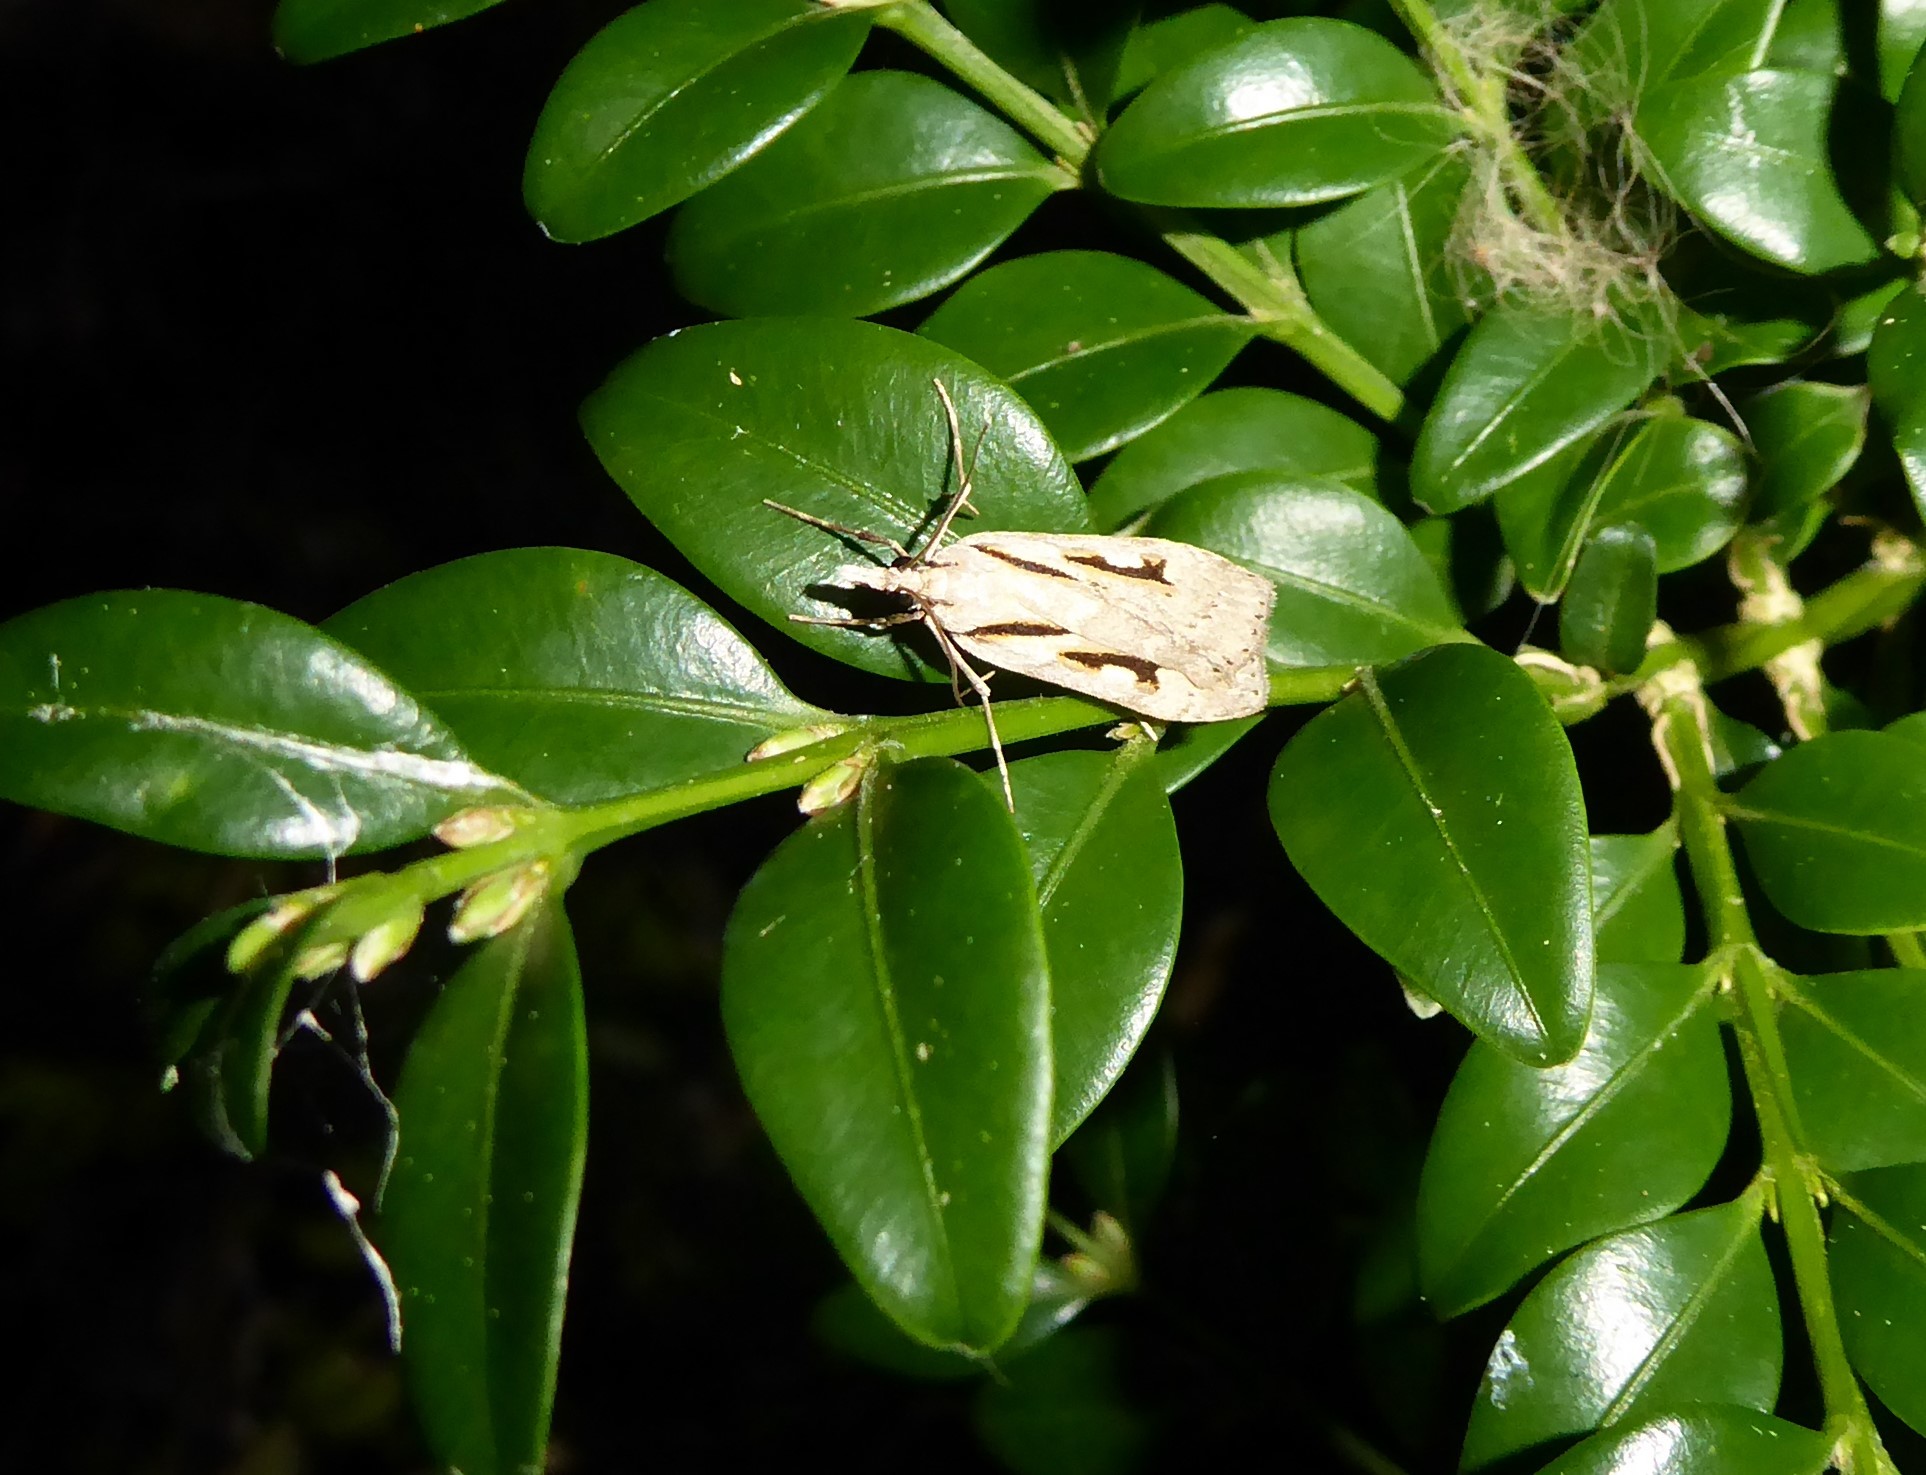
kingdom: Animalia
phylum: Arthropoda
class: Insecta
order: Lepidoptera
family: Crambidae
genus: Scoparia
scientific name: Scoparia rotuellus
